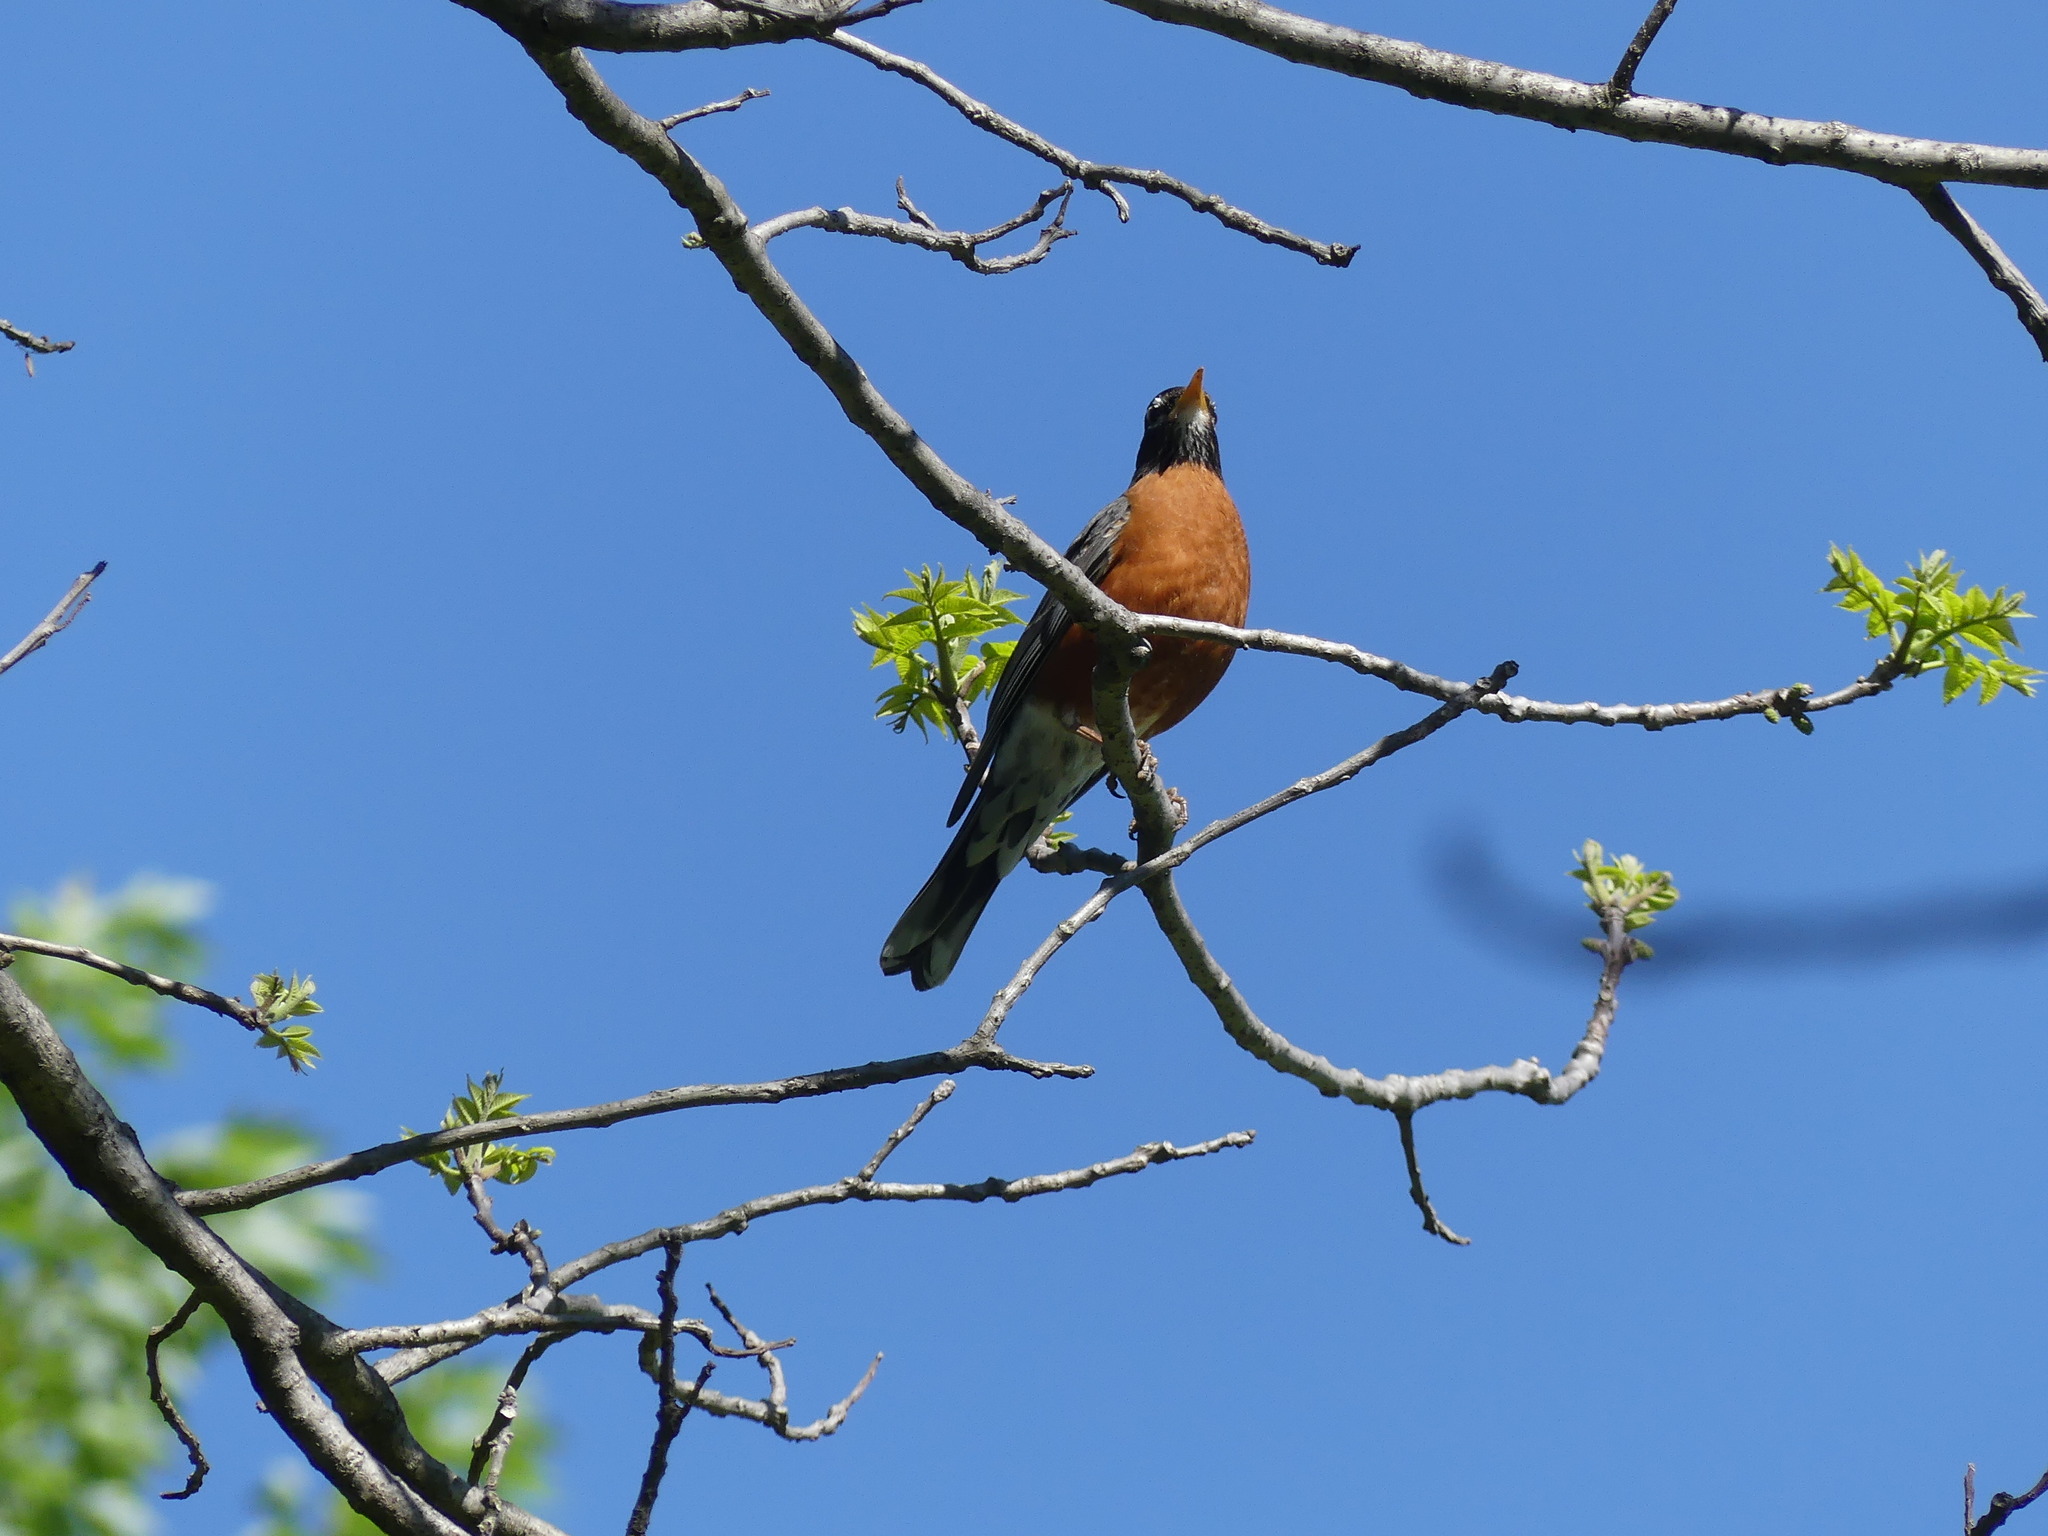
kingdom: Animalia
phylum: Chordata
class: Aves
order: Passeriformes
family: Turdidae
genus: Turdus
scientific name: Turdus migratorius
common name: American robin
